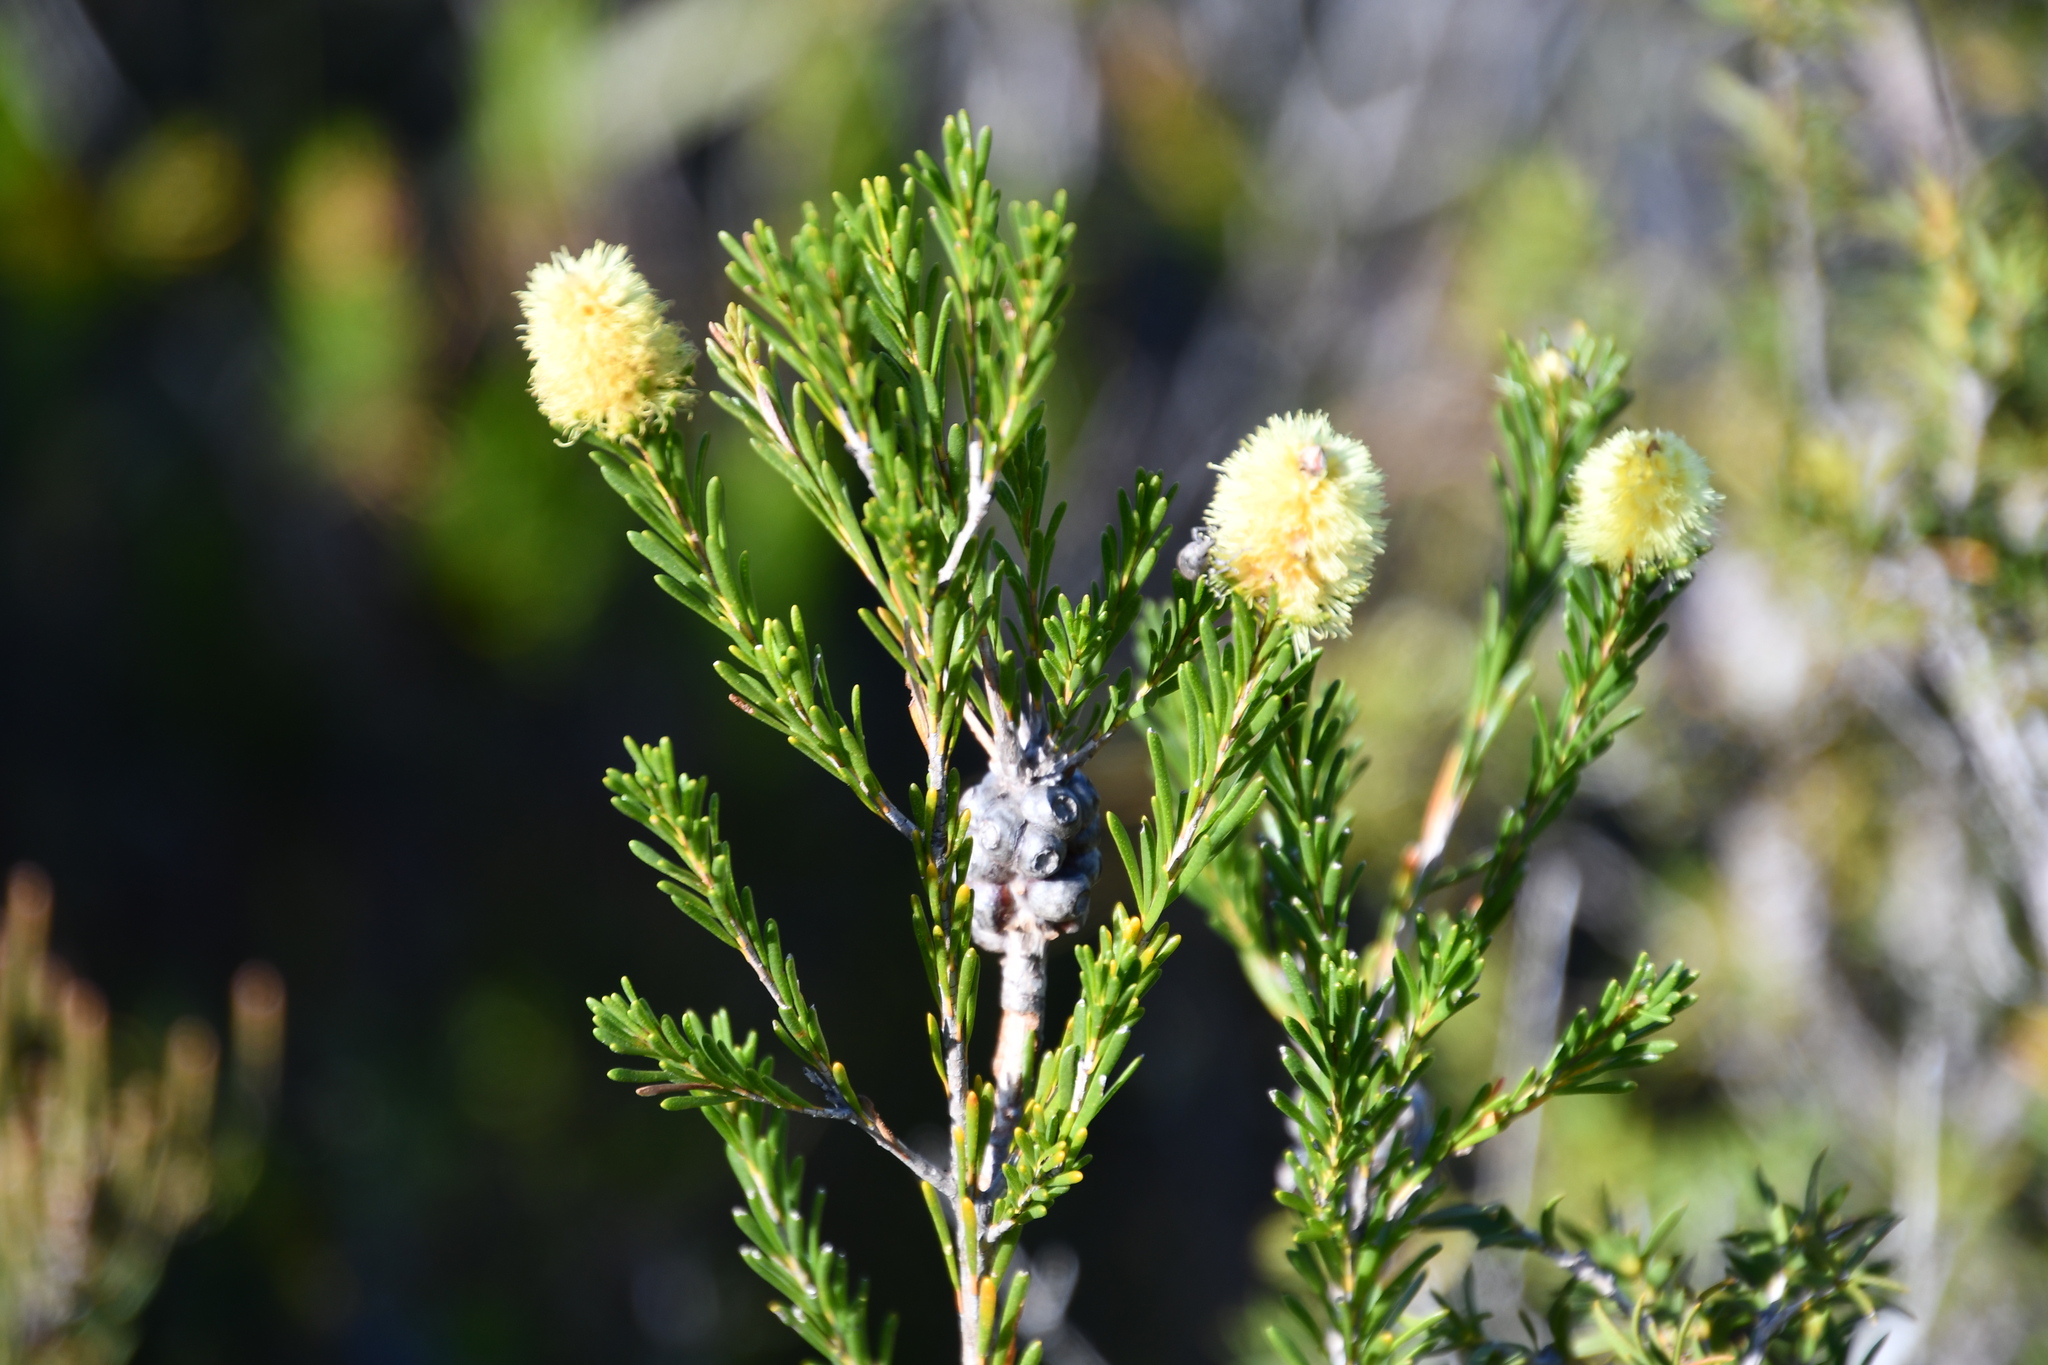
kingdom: Plantae
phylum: Tracheophyta
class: Magnoliopsida
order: Myrtales
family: Myrtaceae
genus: Melaleuca
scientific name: Melaleuca lutea
